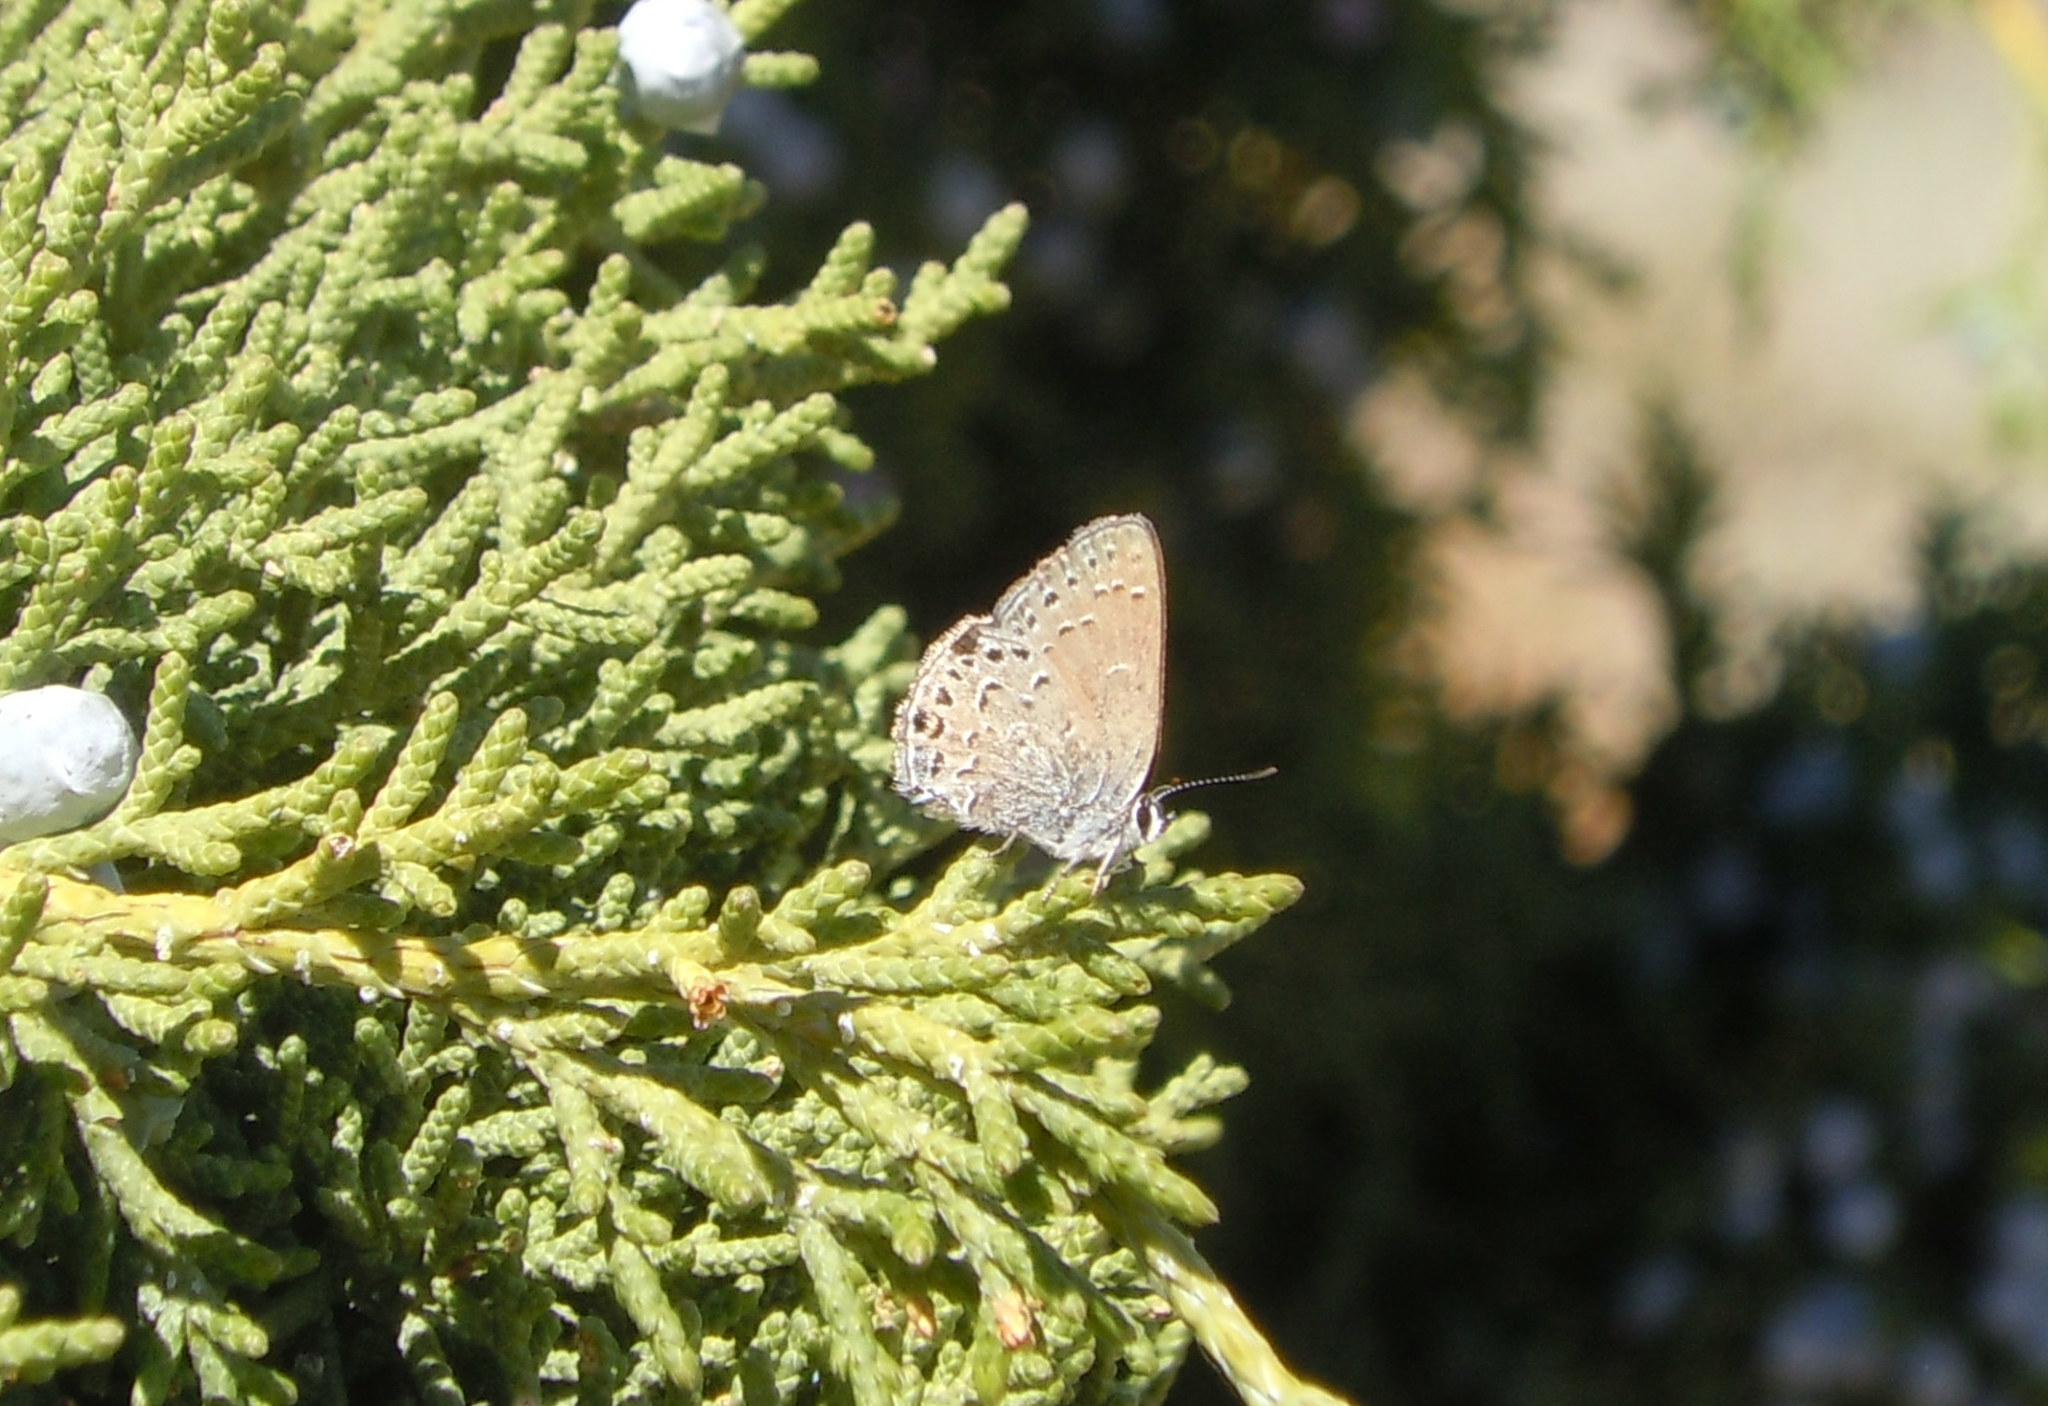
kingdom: Animalia
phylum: Arthropoda
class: Insecta
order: Lepidoptera
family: Lycaenidae
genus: Satyrium
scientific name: Satyrium behrii
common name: Behr's hairstreak
